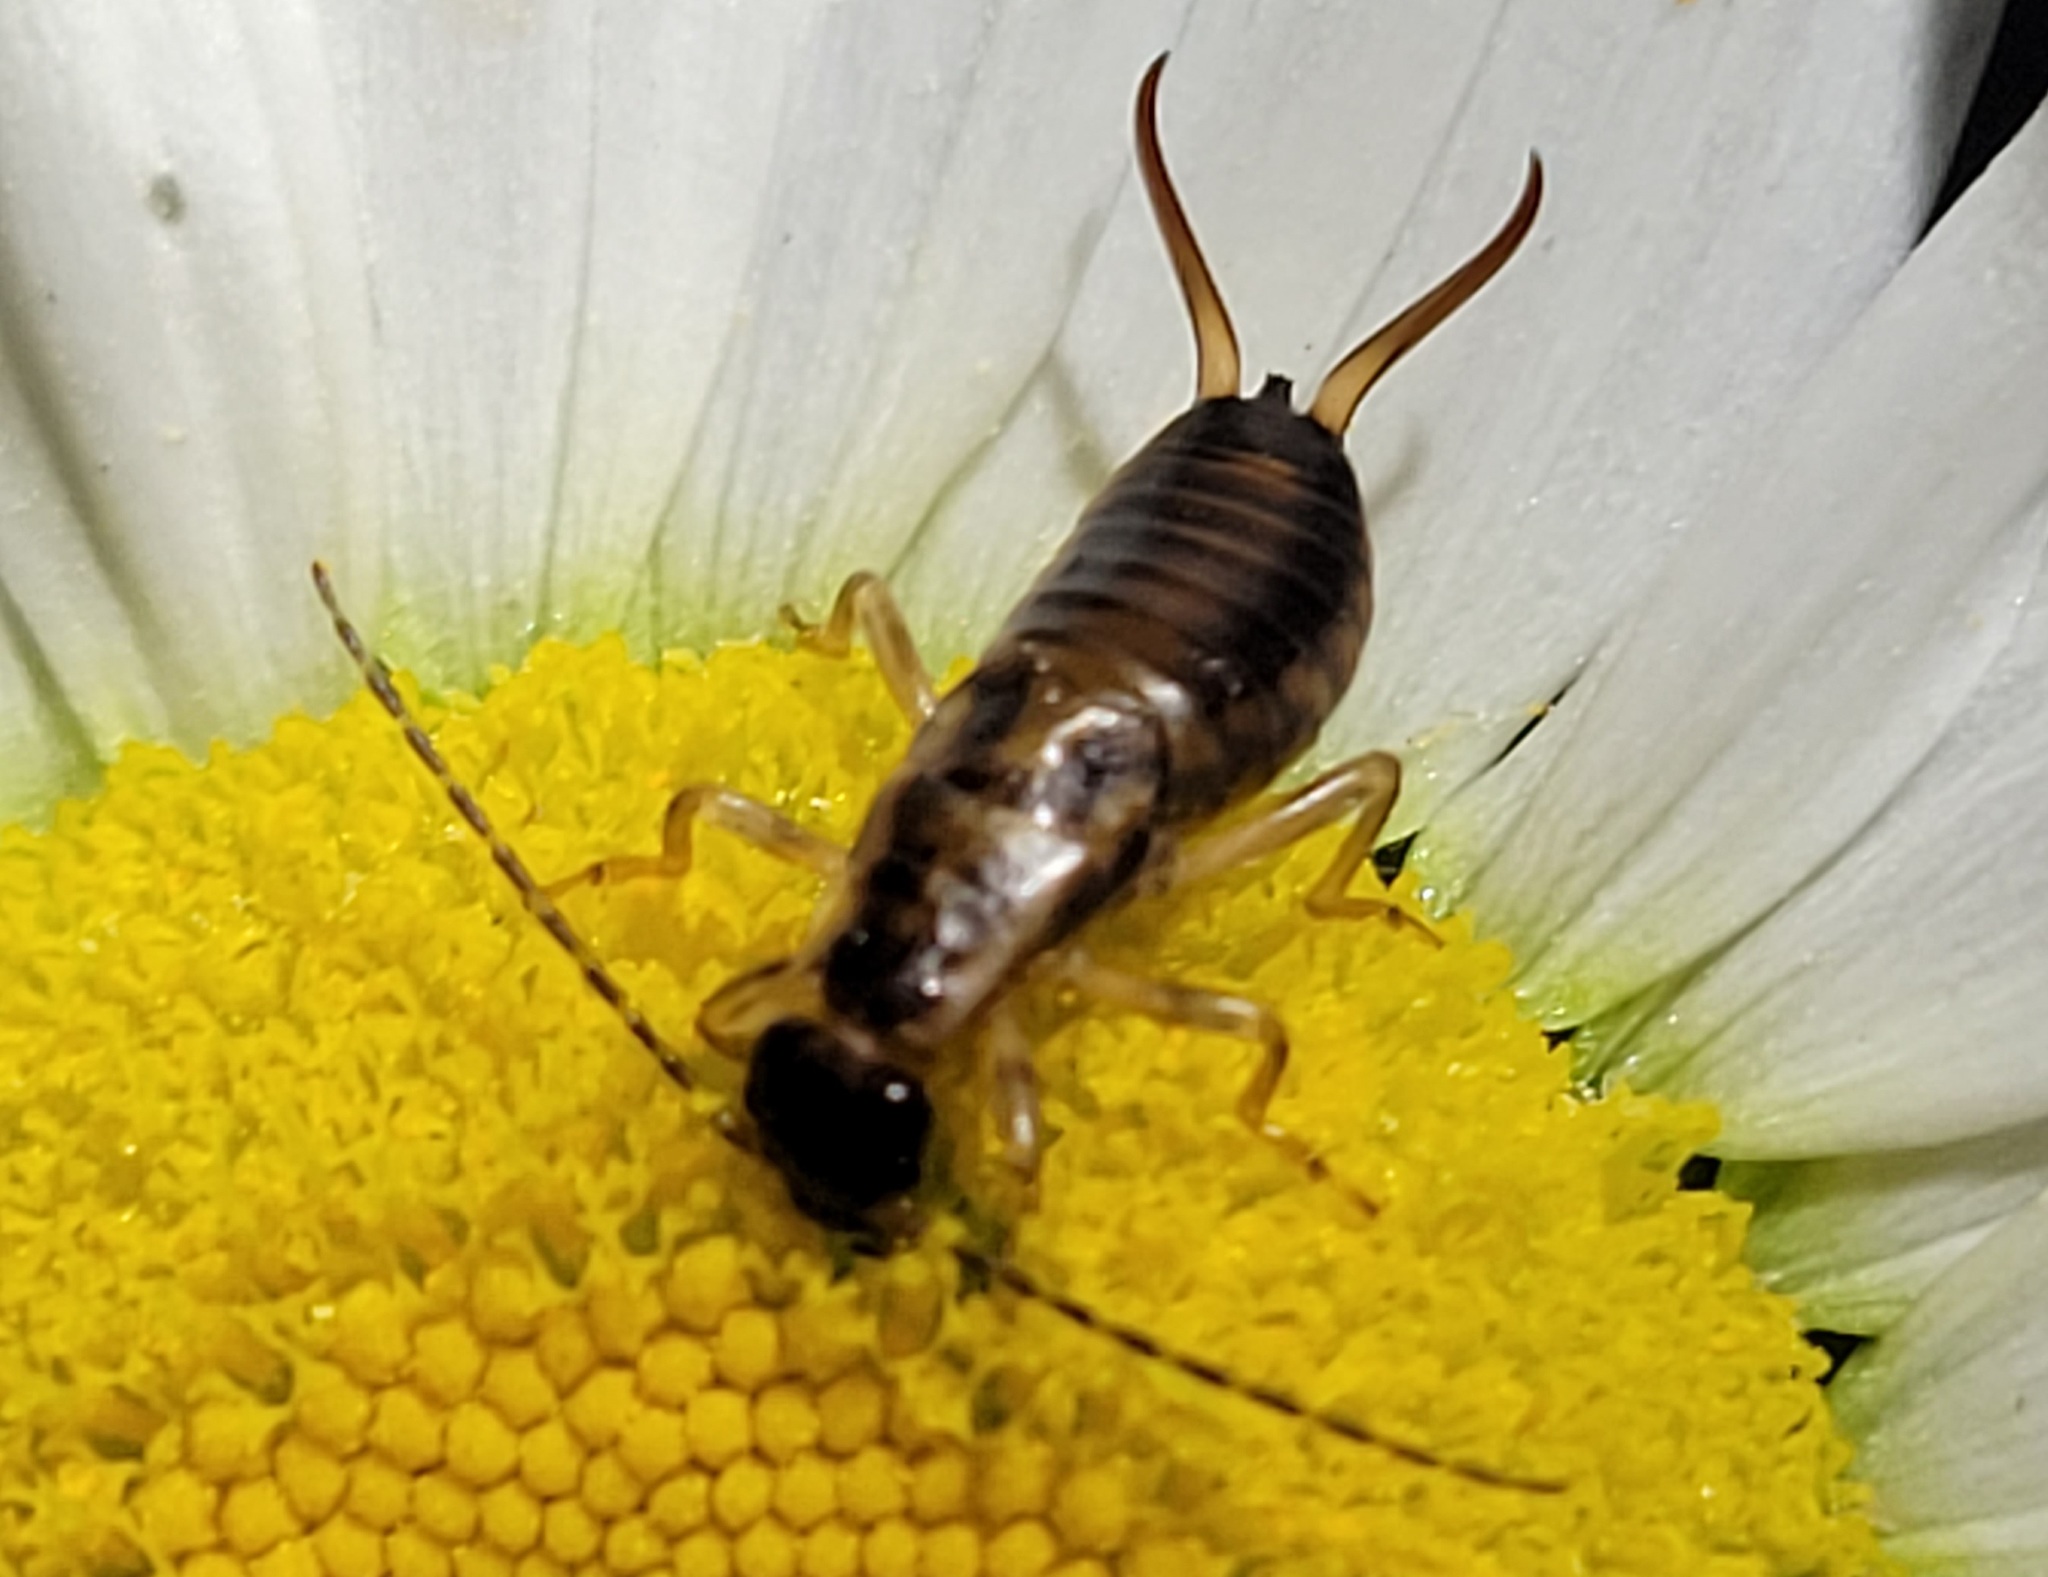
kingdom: Animalia
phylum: Arthropoda
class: Insecta
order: Dermaptera
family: Forficulidae
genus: Forficula
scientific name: Forficula
